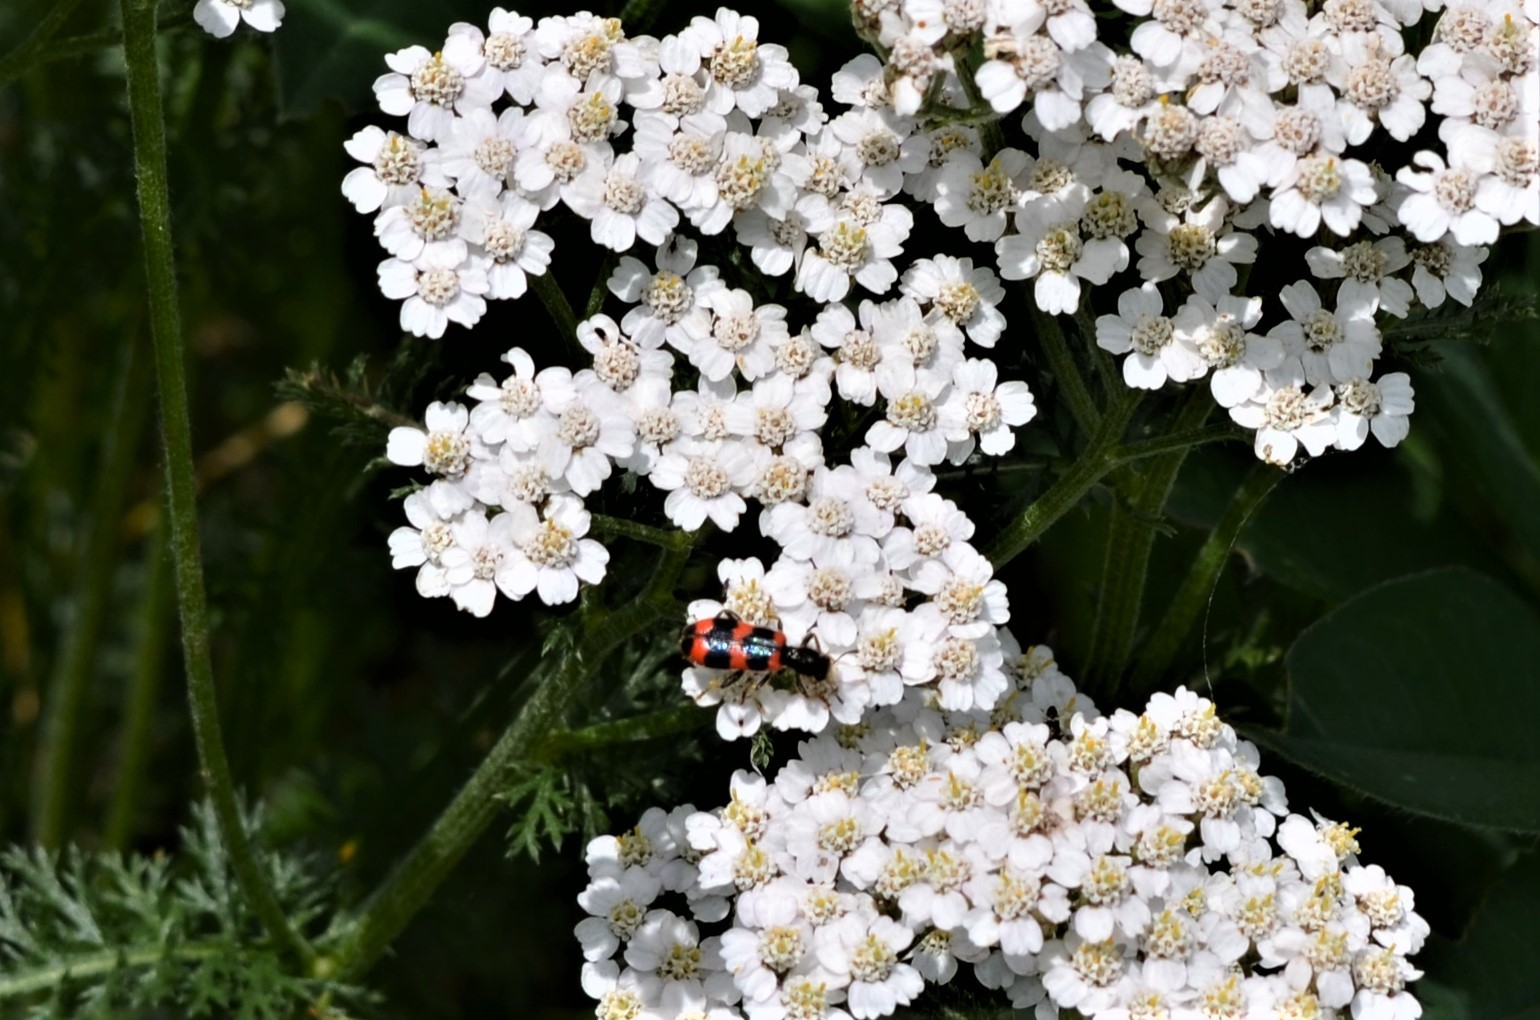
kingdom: Animalia
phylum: Arthropoda
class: Insecta
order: Coleoptera
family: Cleridae
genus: Trichodes
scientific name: Trichodes apiarius
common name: Bee-eating beetle
